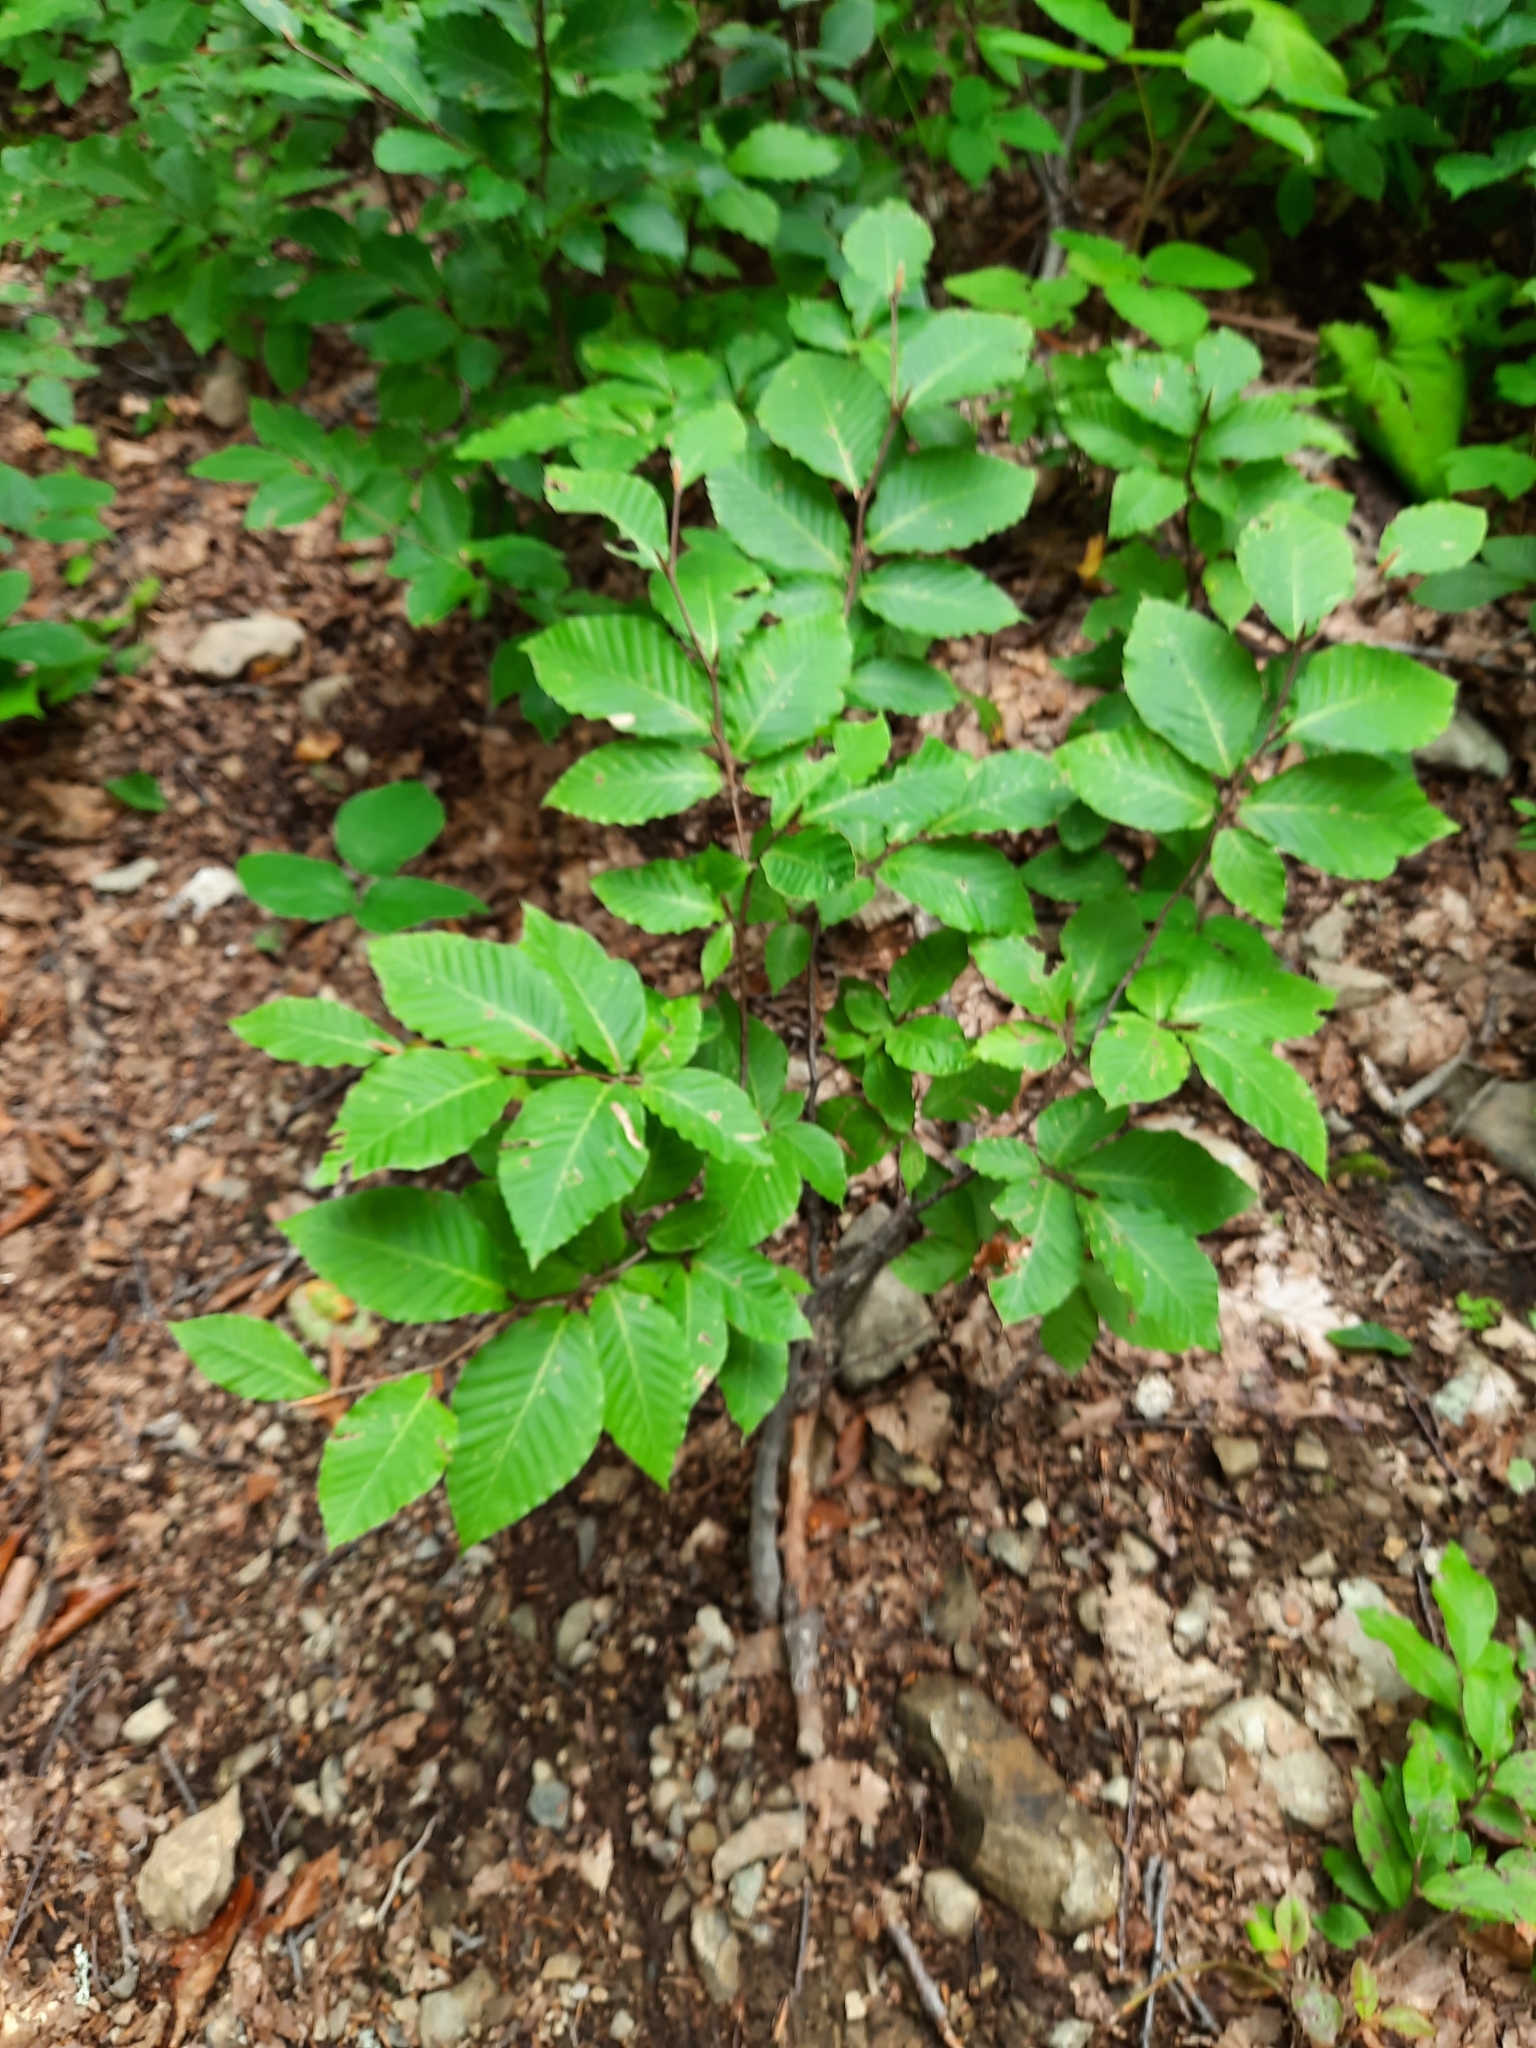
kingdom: Plantae
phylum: Tracheophyta
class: Magnoliopsida
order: Ericales
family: Ericaceae
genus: Vaccinium
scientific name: Vaccinium arctostaphylos
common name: Caucasian whortleberry
